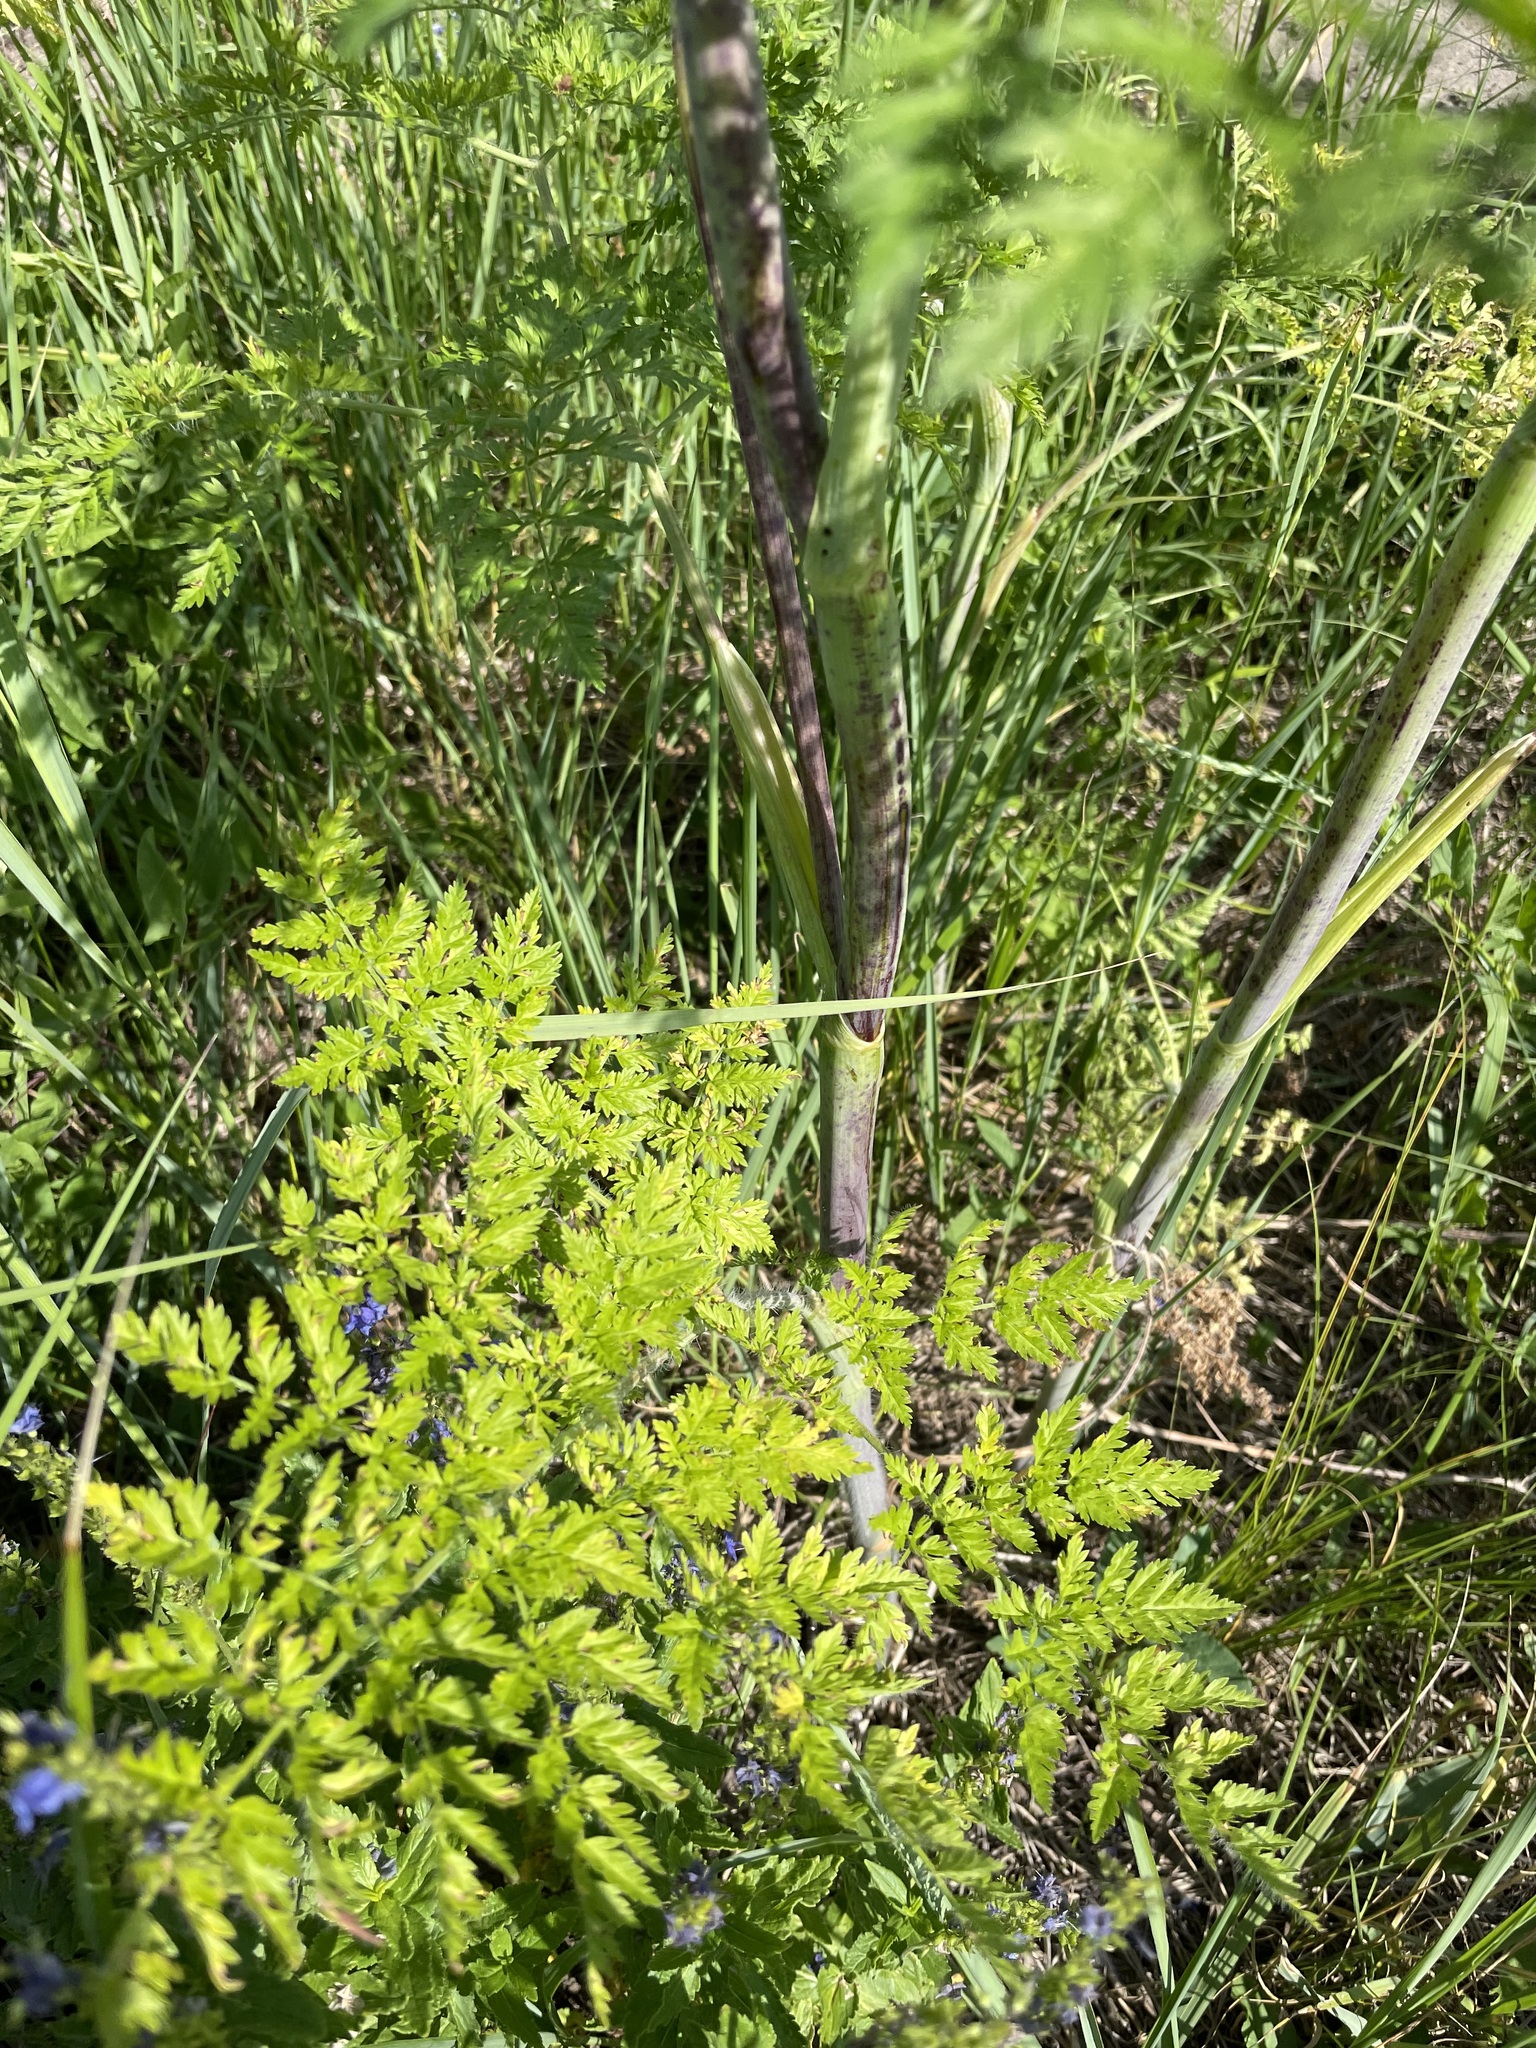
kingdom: Plantae
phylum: Tracheophyta
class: Magnoliopsida
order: Apiales
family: Apiaceae
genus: Chaerophyllum
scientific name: Chaerophyllum bulbosum
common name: Bulbous chervil
